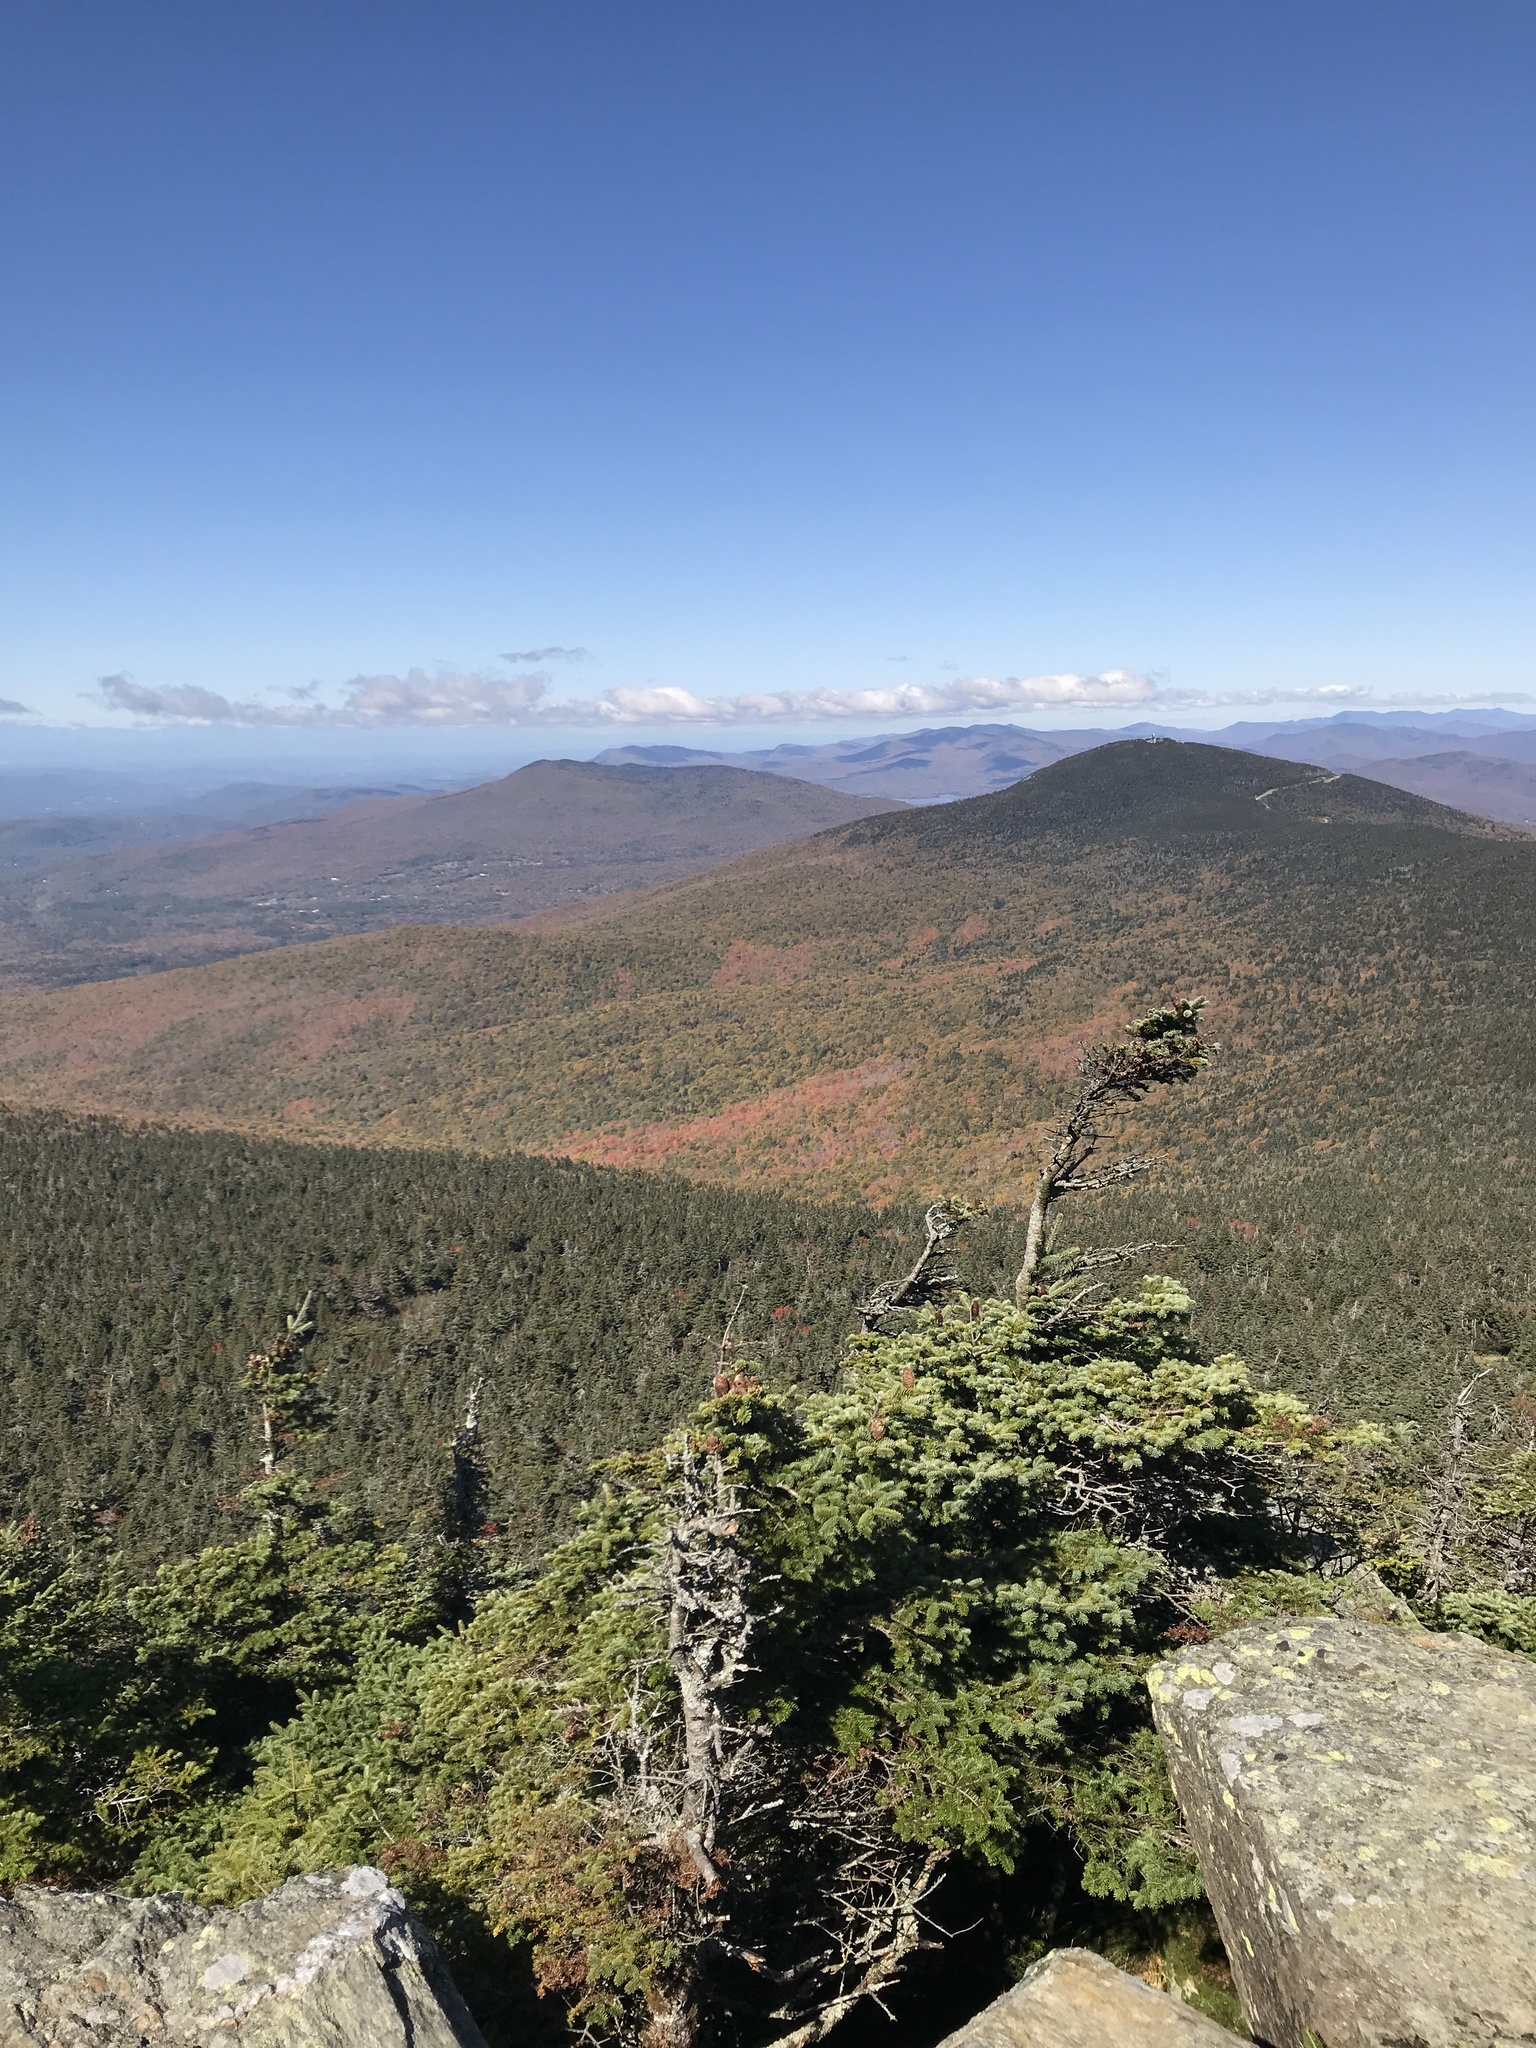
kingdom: Plantae
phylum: Tracheophyta
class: Pinopsida
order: Pinales
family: Pinaceae
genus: Abies
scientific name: Abies balsamea
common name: Balsam fir
